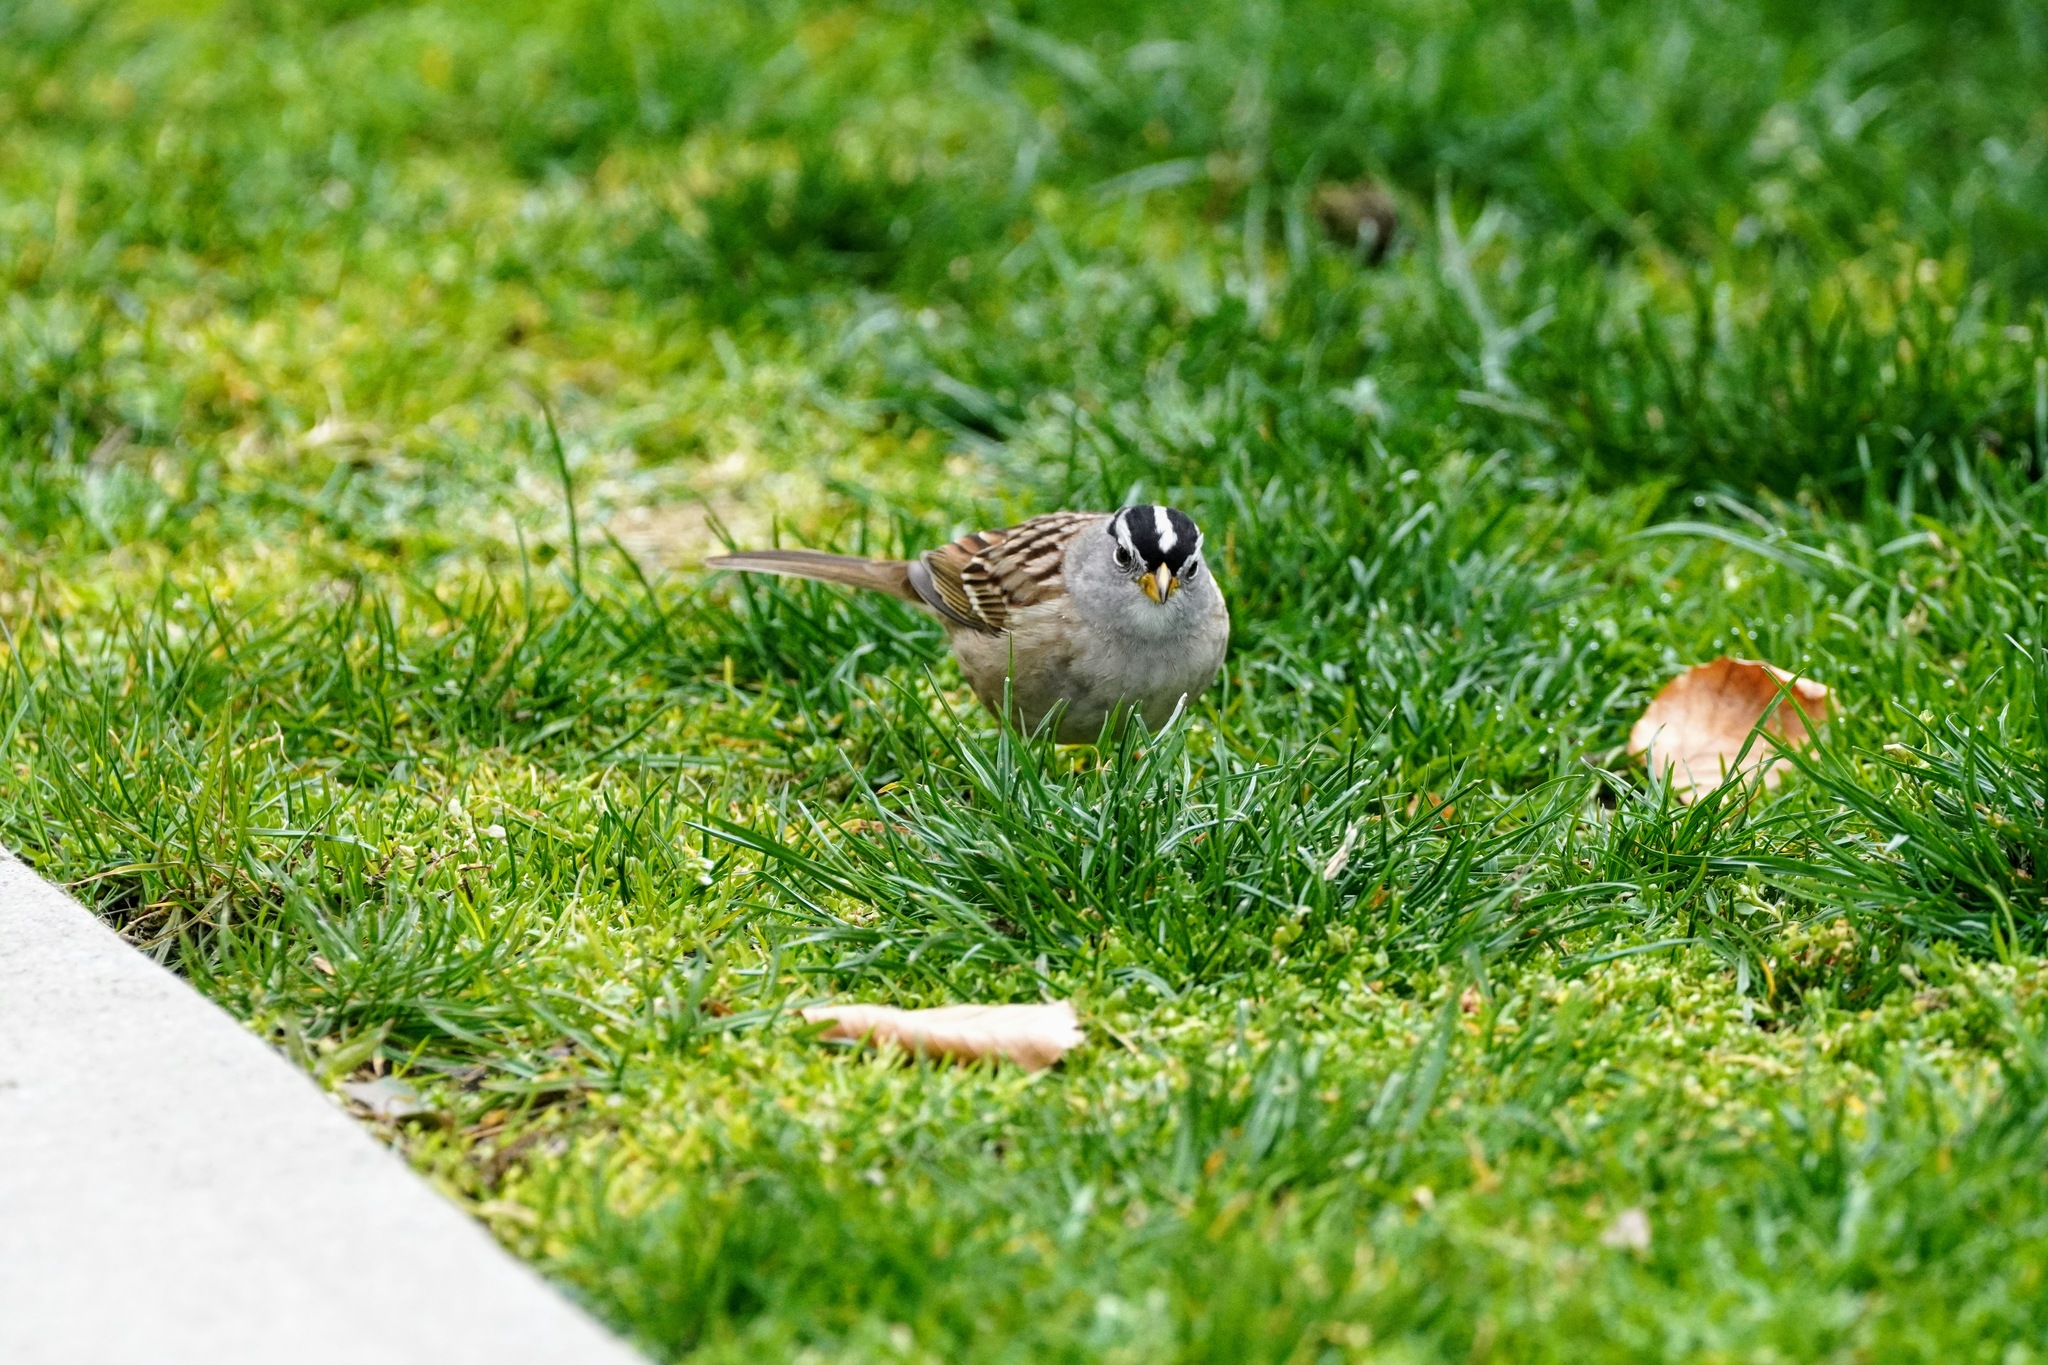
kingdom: Animalia
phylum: Chordata
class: Aves
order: Passeriformes
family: Passerellidae
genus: Zonotrichia
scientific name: Zonotrichia leucophrys
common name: White-crowned sparrow
